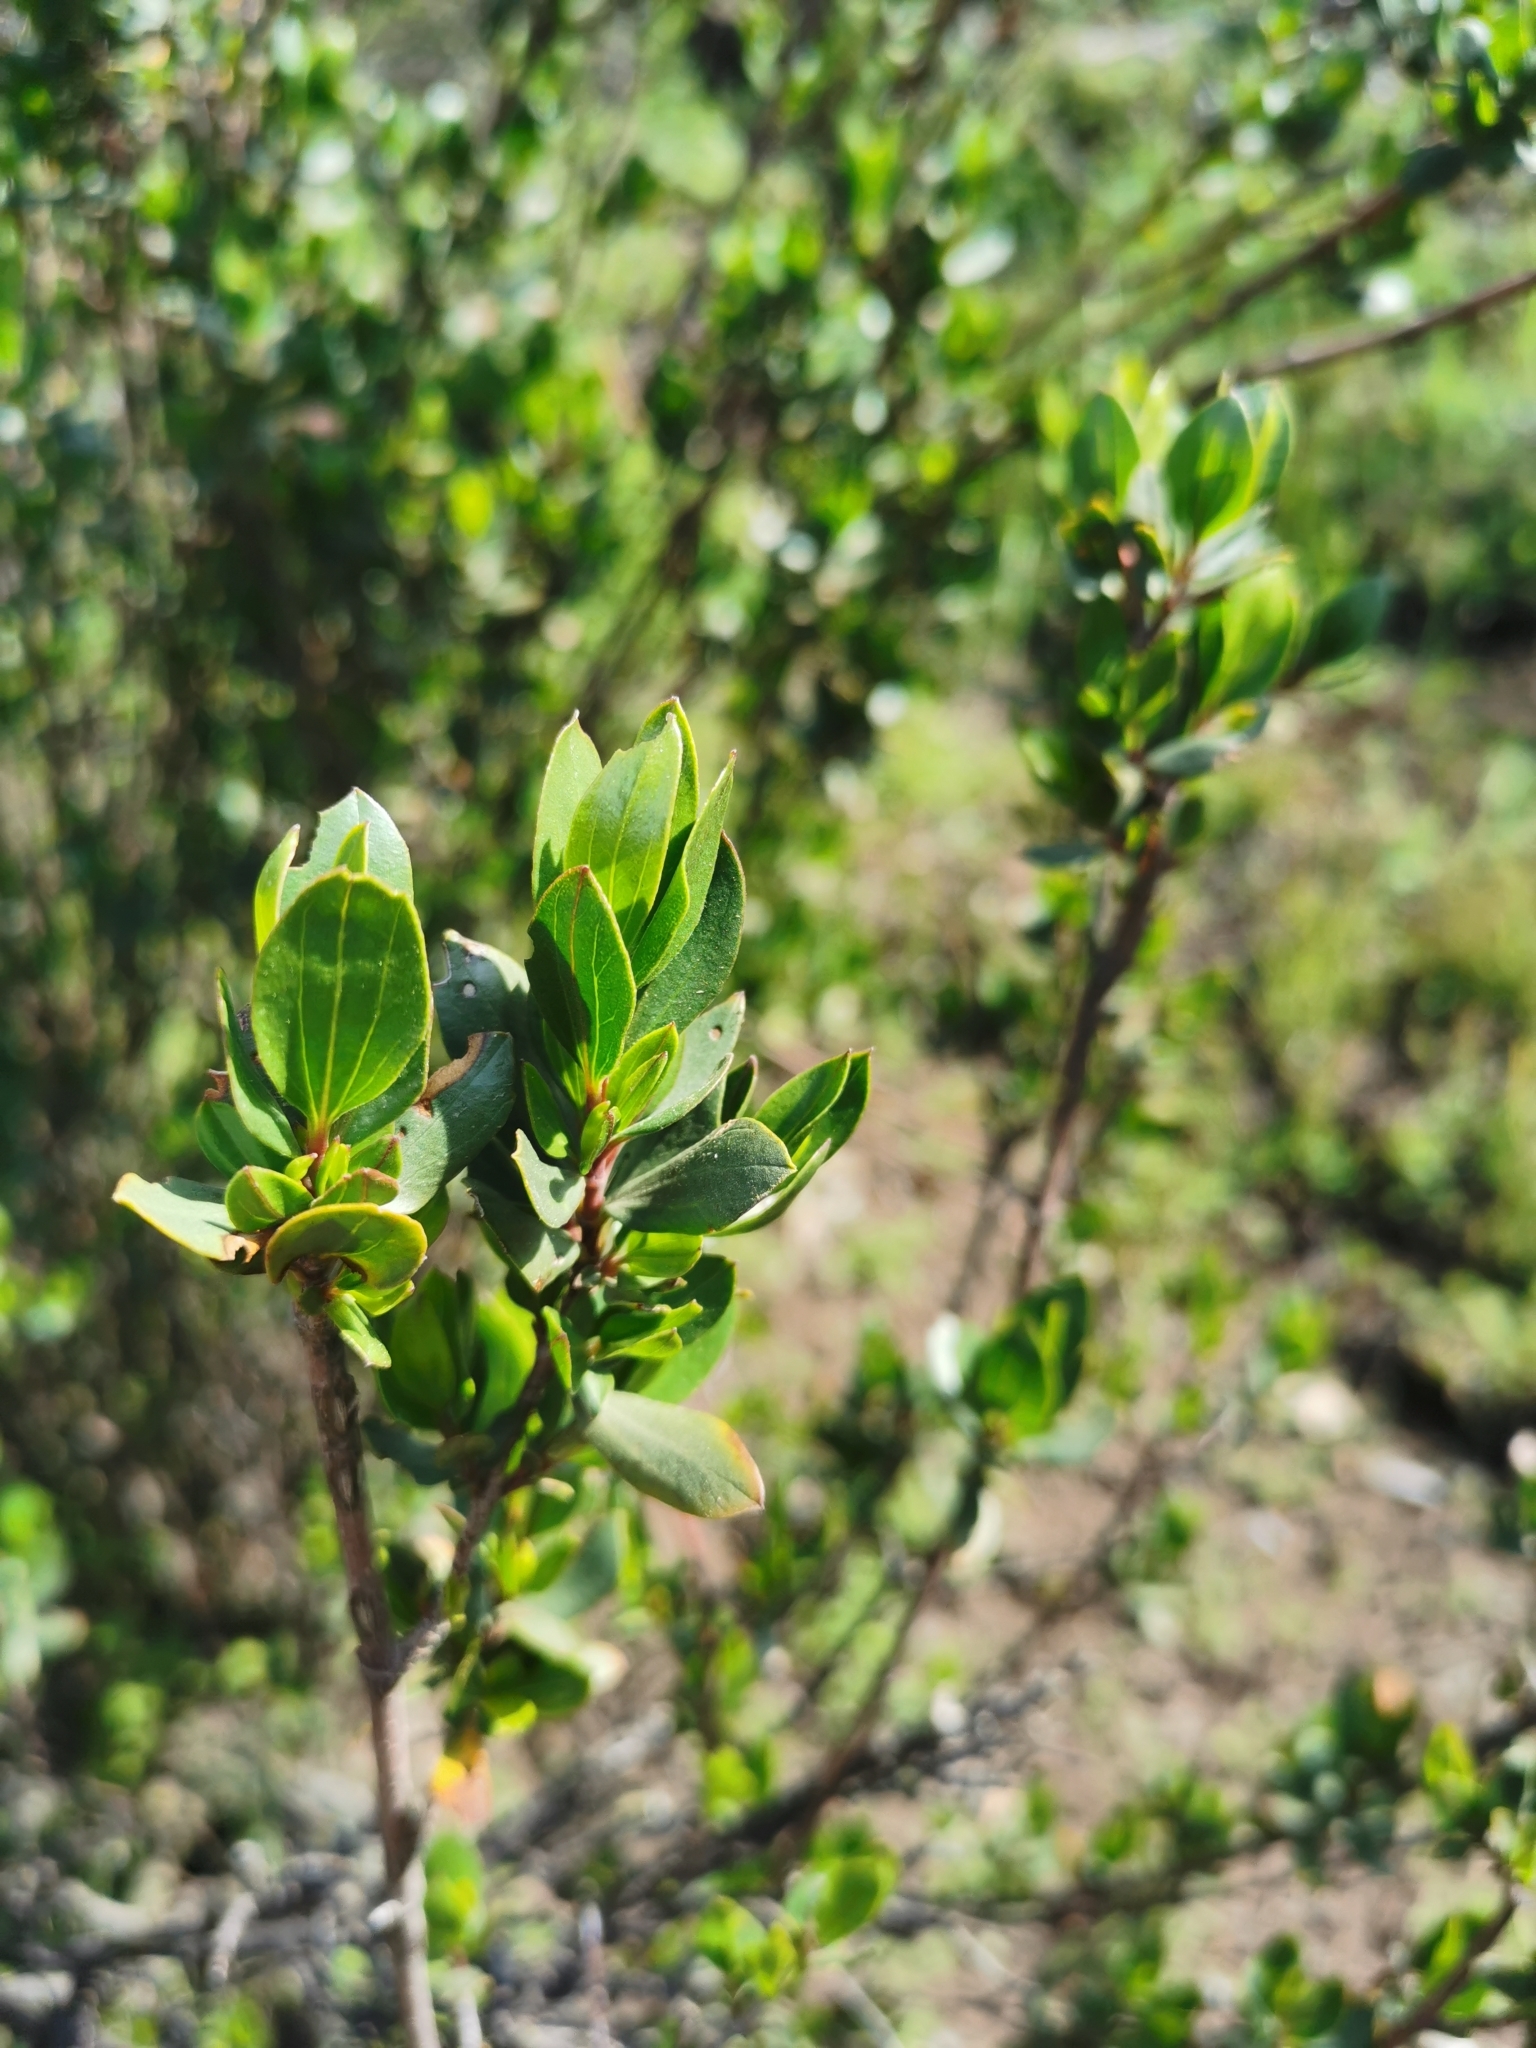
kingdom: Plantae
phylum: Tracheophyta
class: Magnoliopsida
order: Sapindales
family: Sapindaceae
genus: Guindilia
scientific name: Guindilia trinervis
